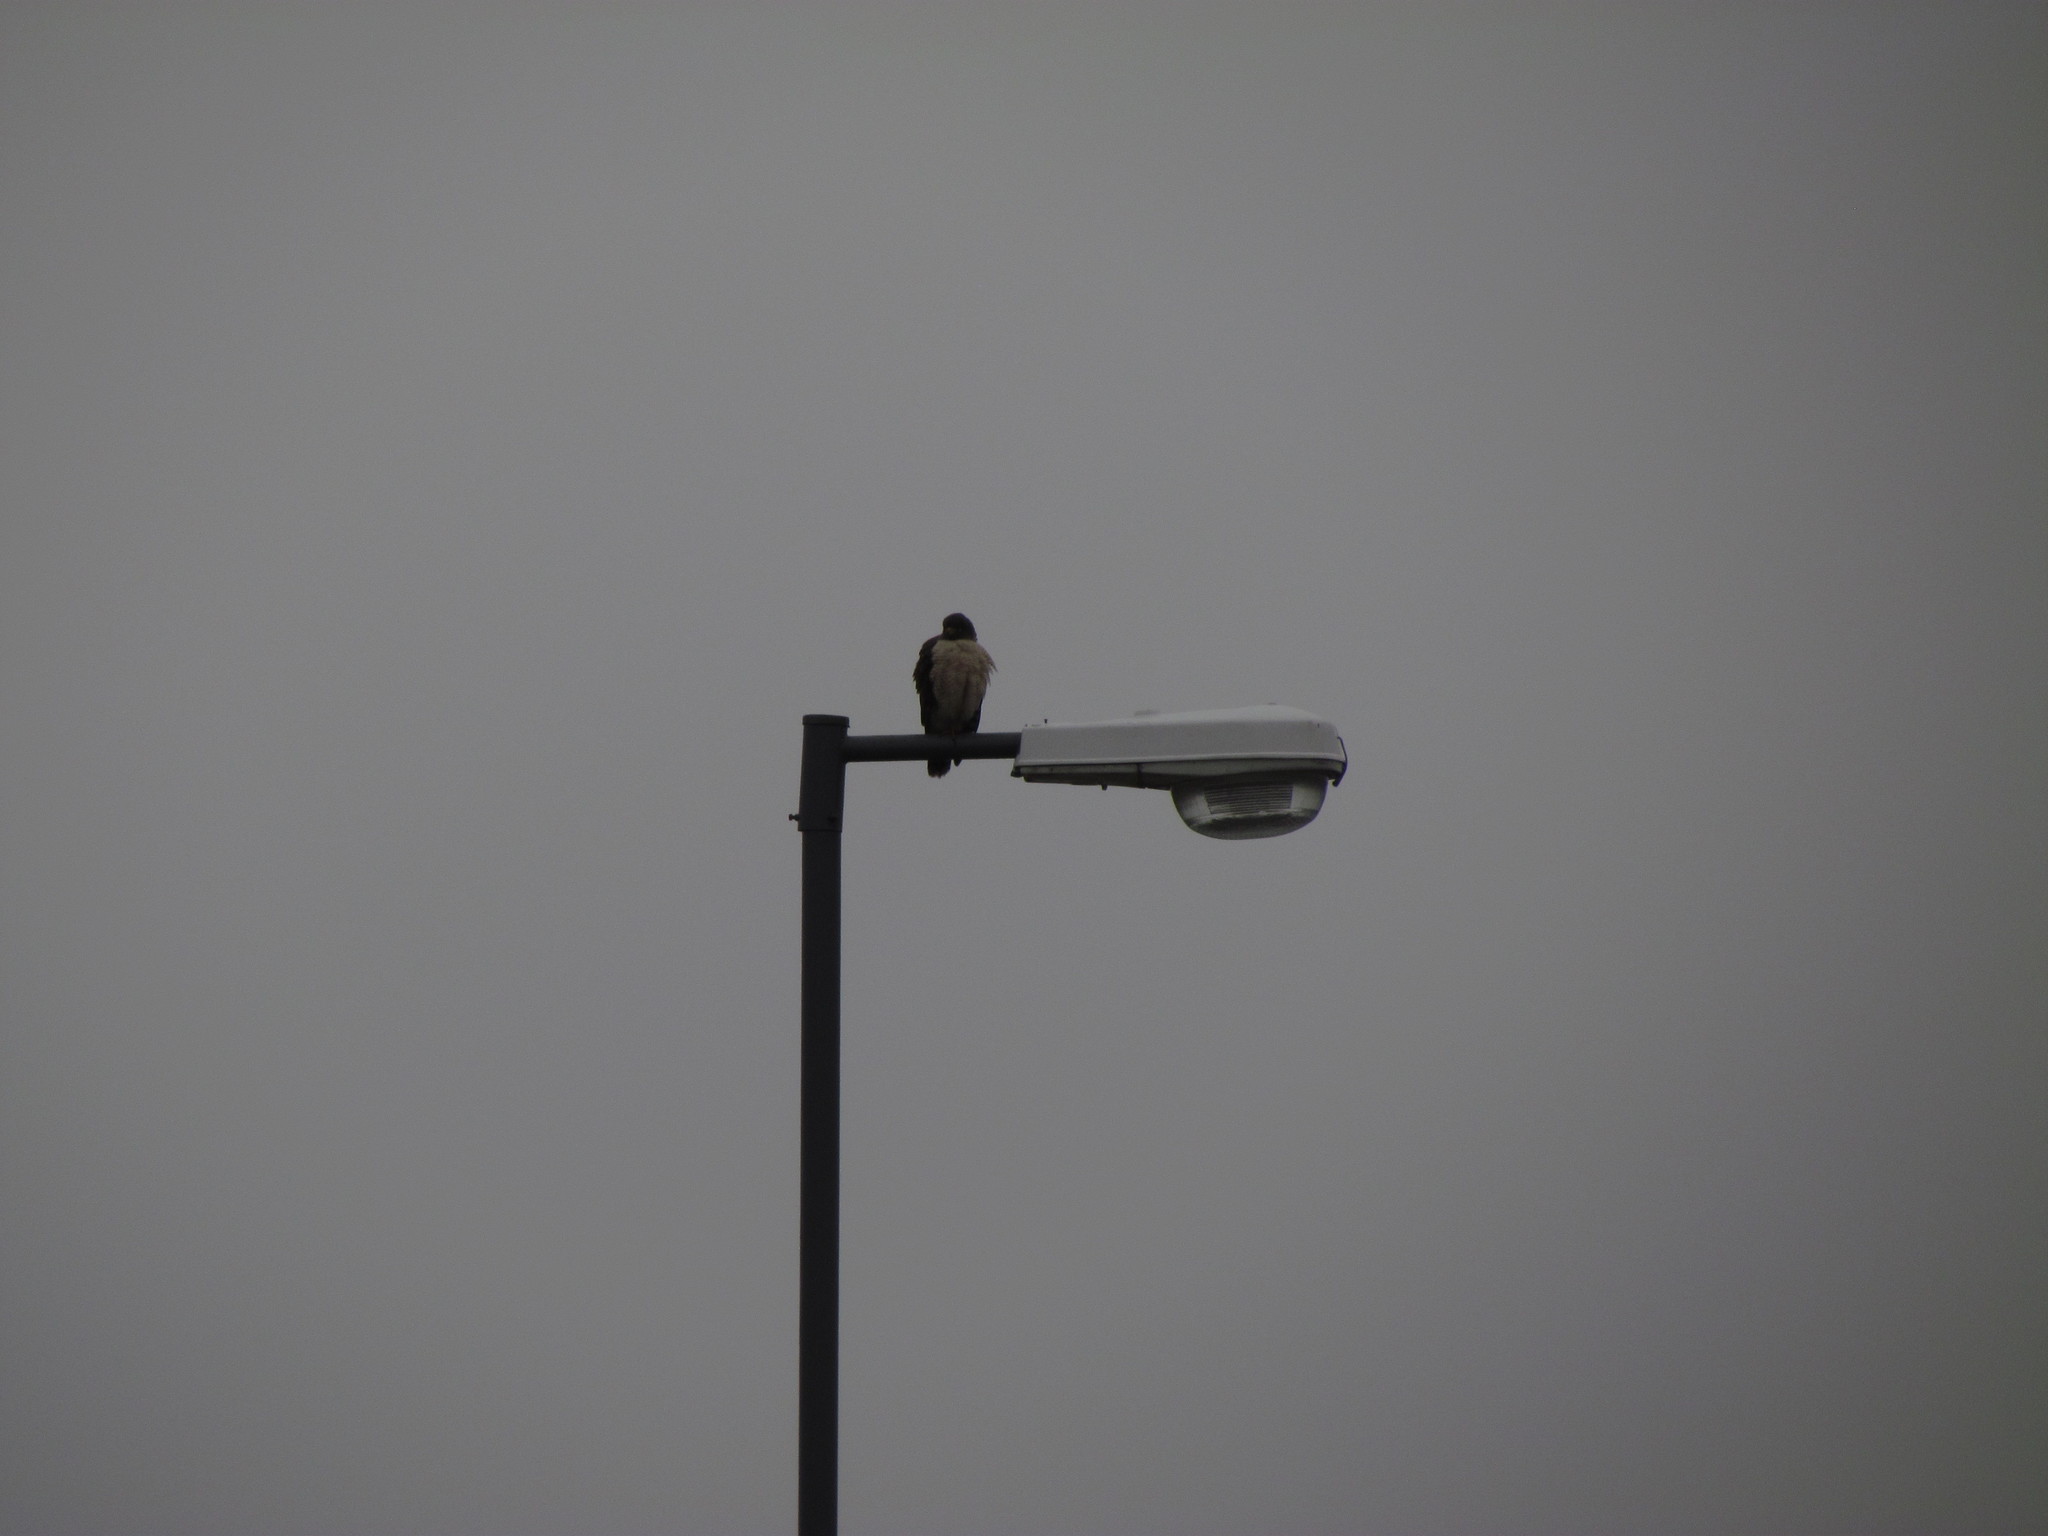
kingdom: Animalia
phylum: Chordata
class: Aves
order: Accipitriformes
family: Accipitridae
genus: Rupornis
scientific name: Rupornis magnirostris
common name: Roadside hawk
